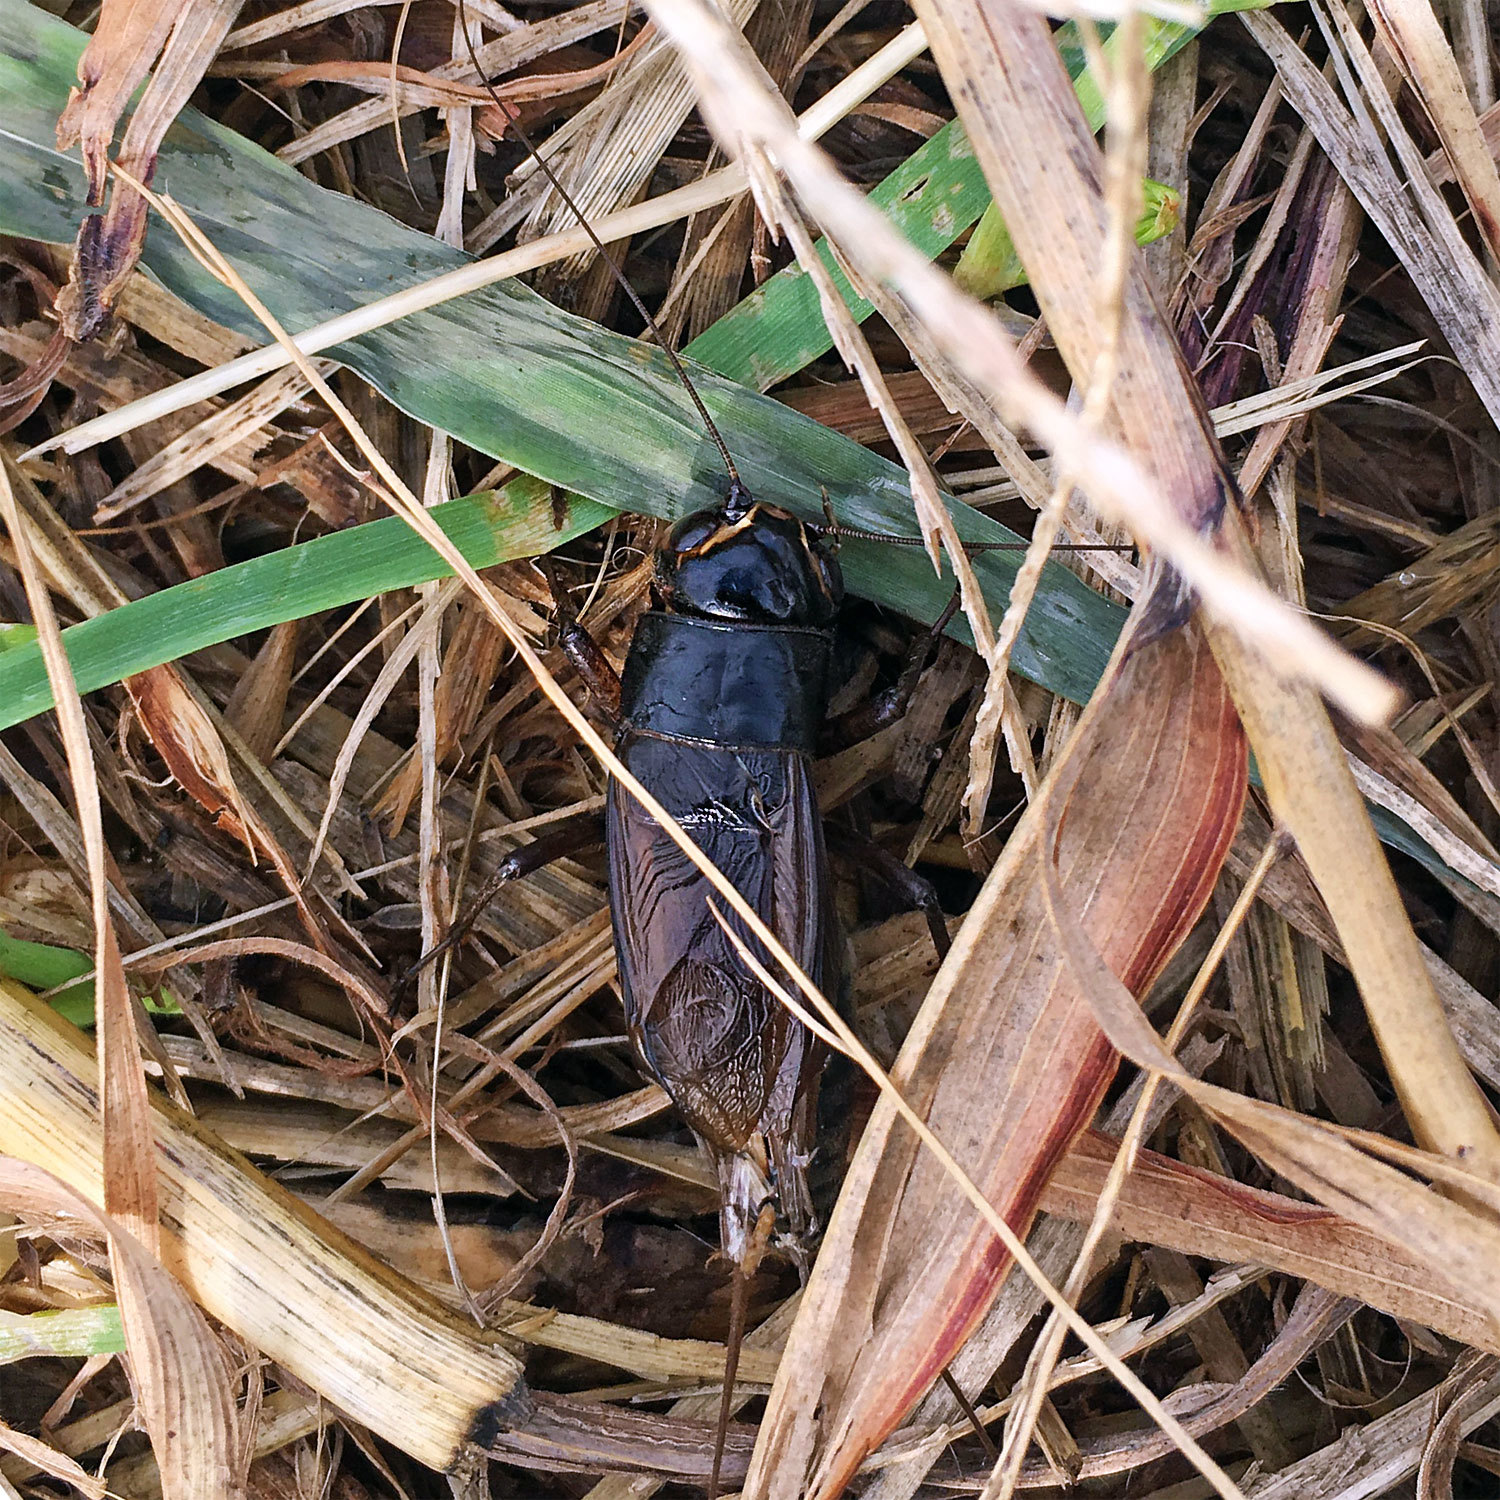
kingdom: Animalia
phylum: Arthropoda
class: Insecta
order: Orthoptera
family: Gryllidae
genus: Teleogryllus
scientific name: Teleogryllus emma
